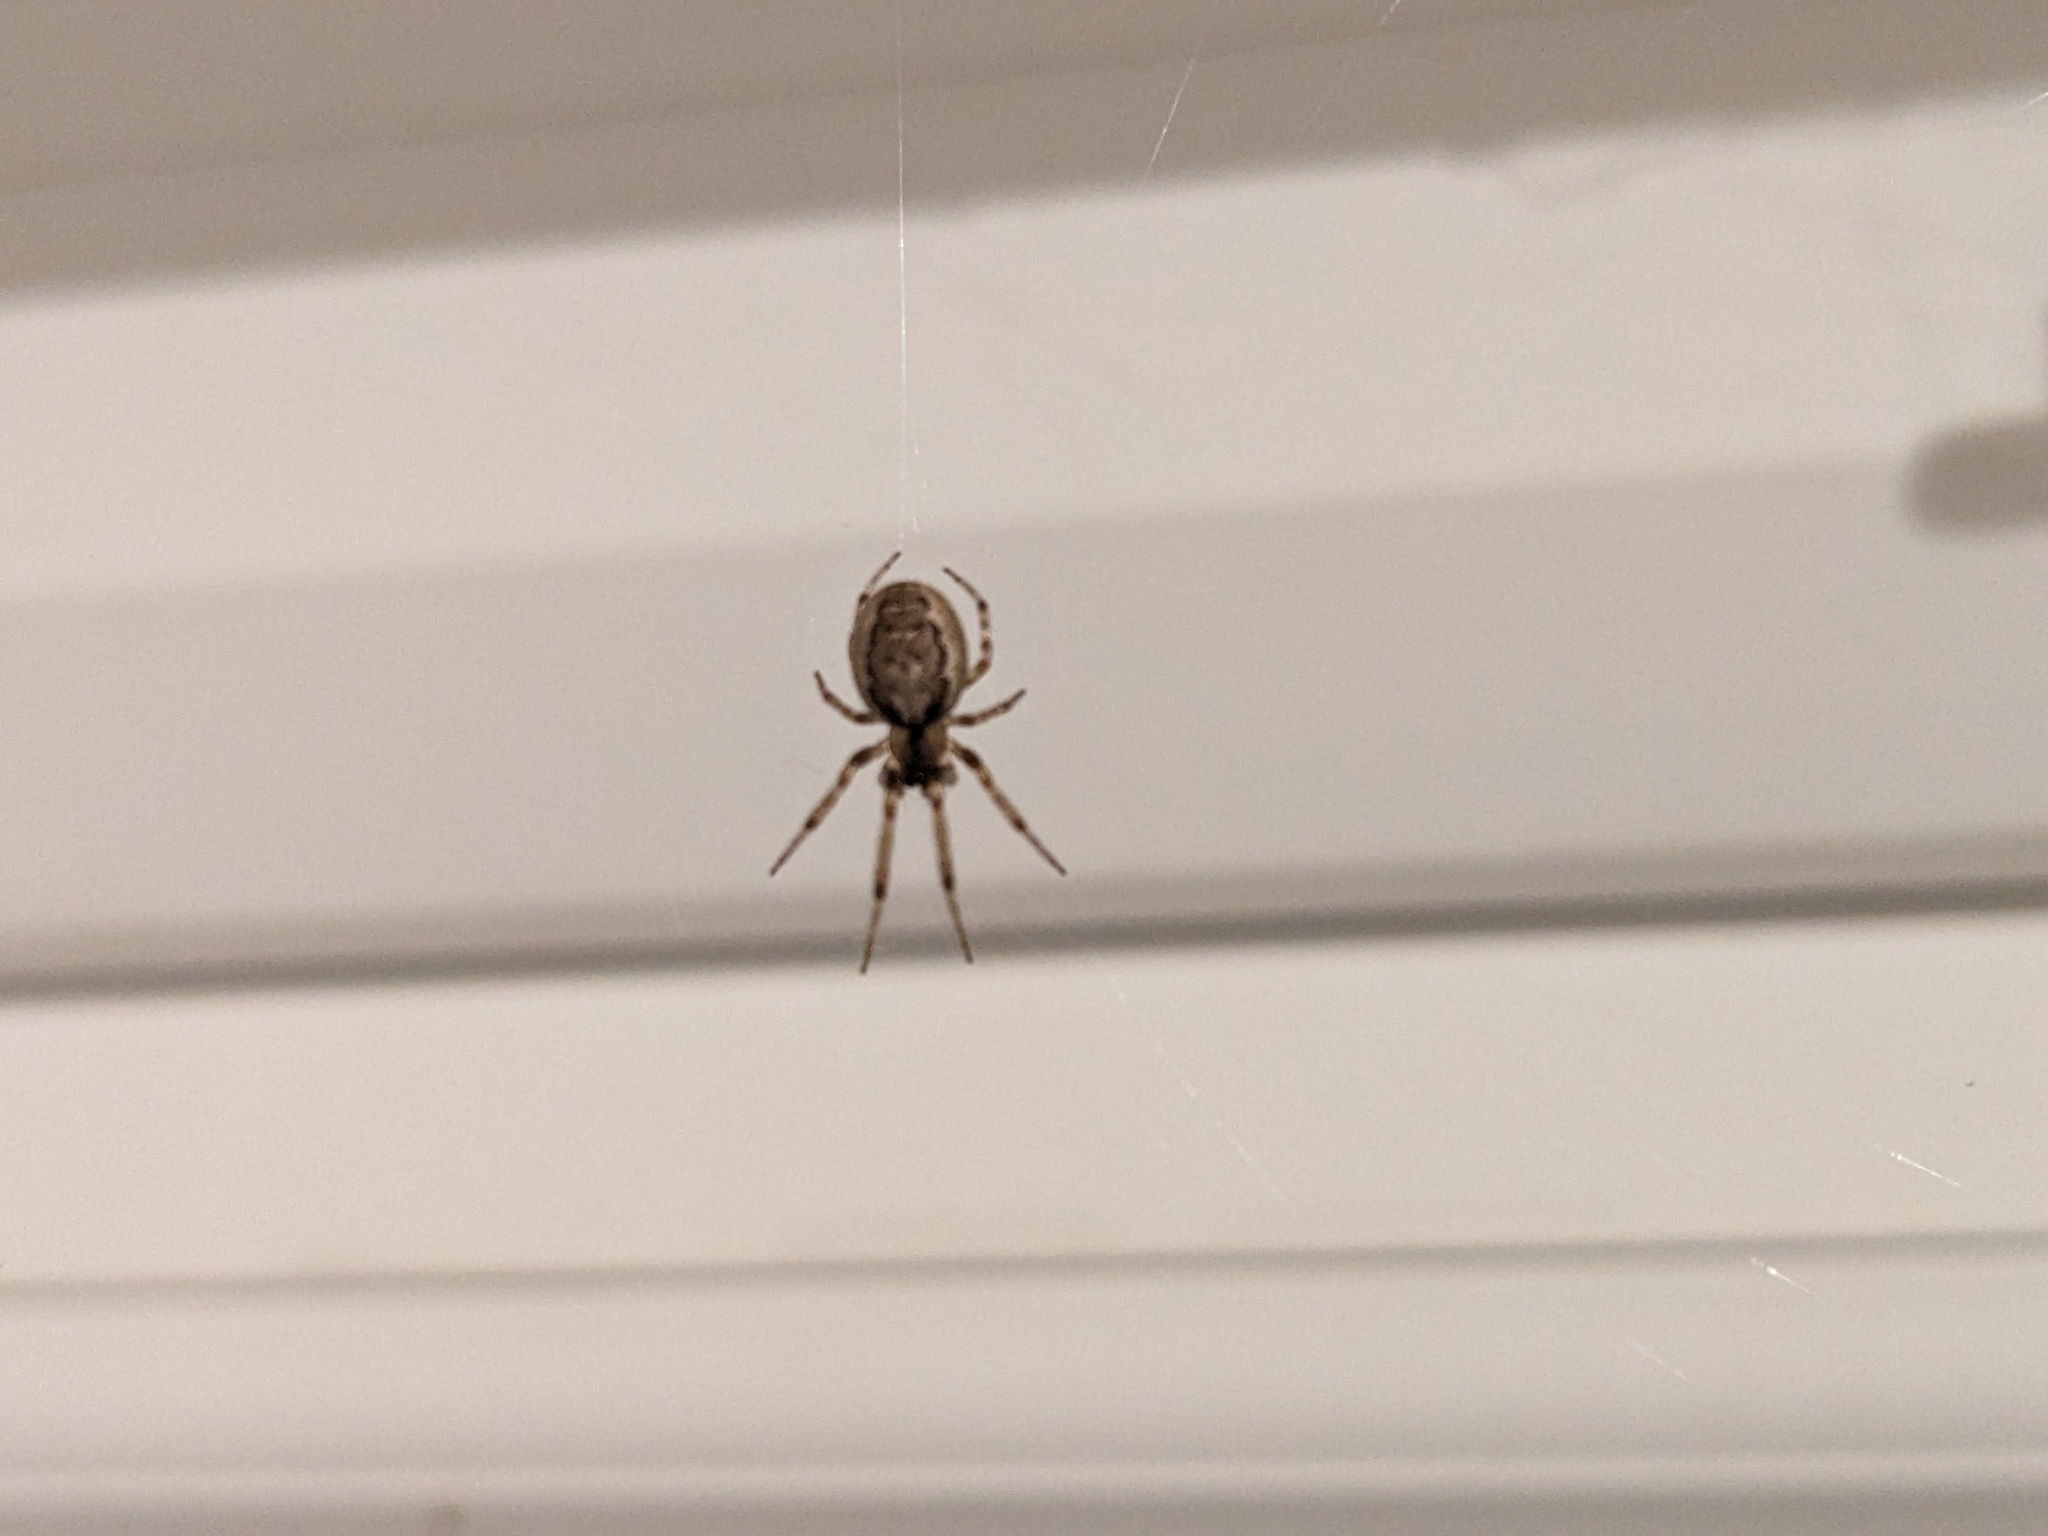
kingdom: Animalia
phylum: Arthropoda
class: Arachnida
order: Araneae
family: Araneidae
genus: Zygiella
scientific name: Zygiella x-notata
